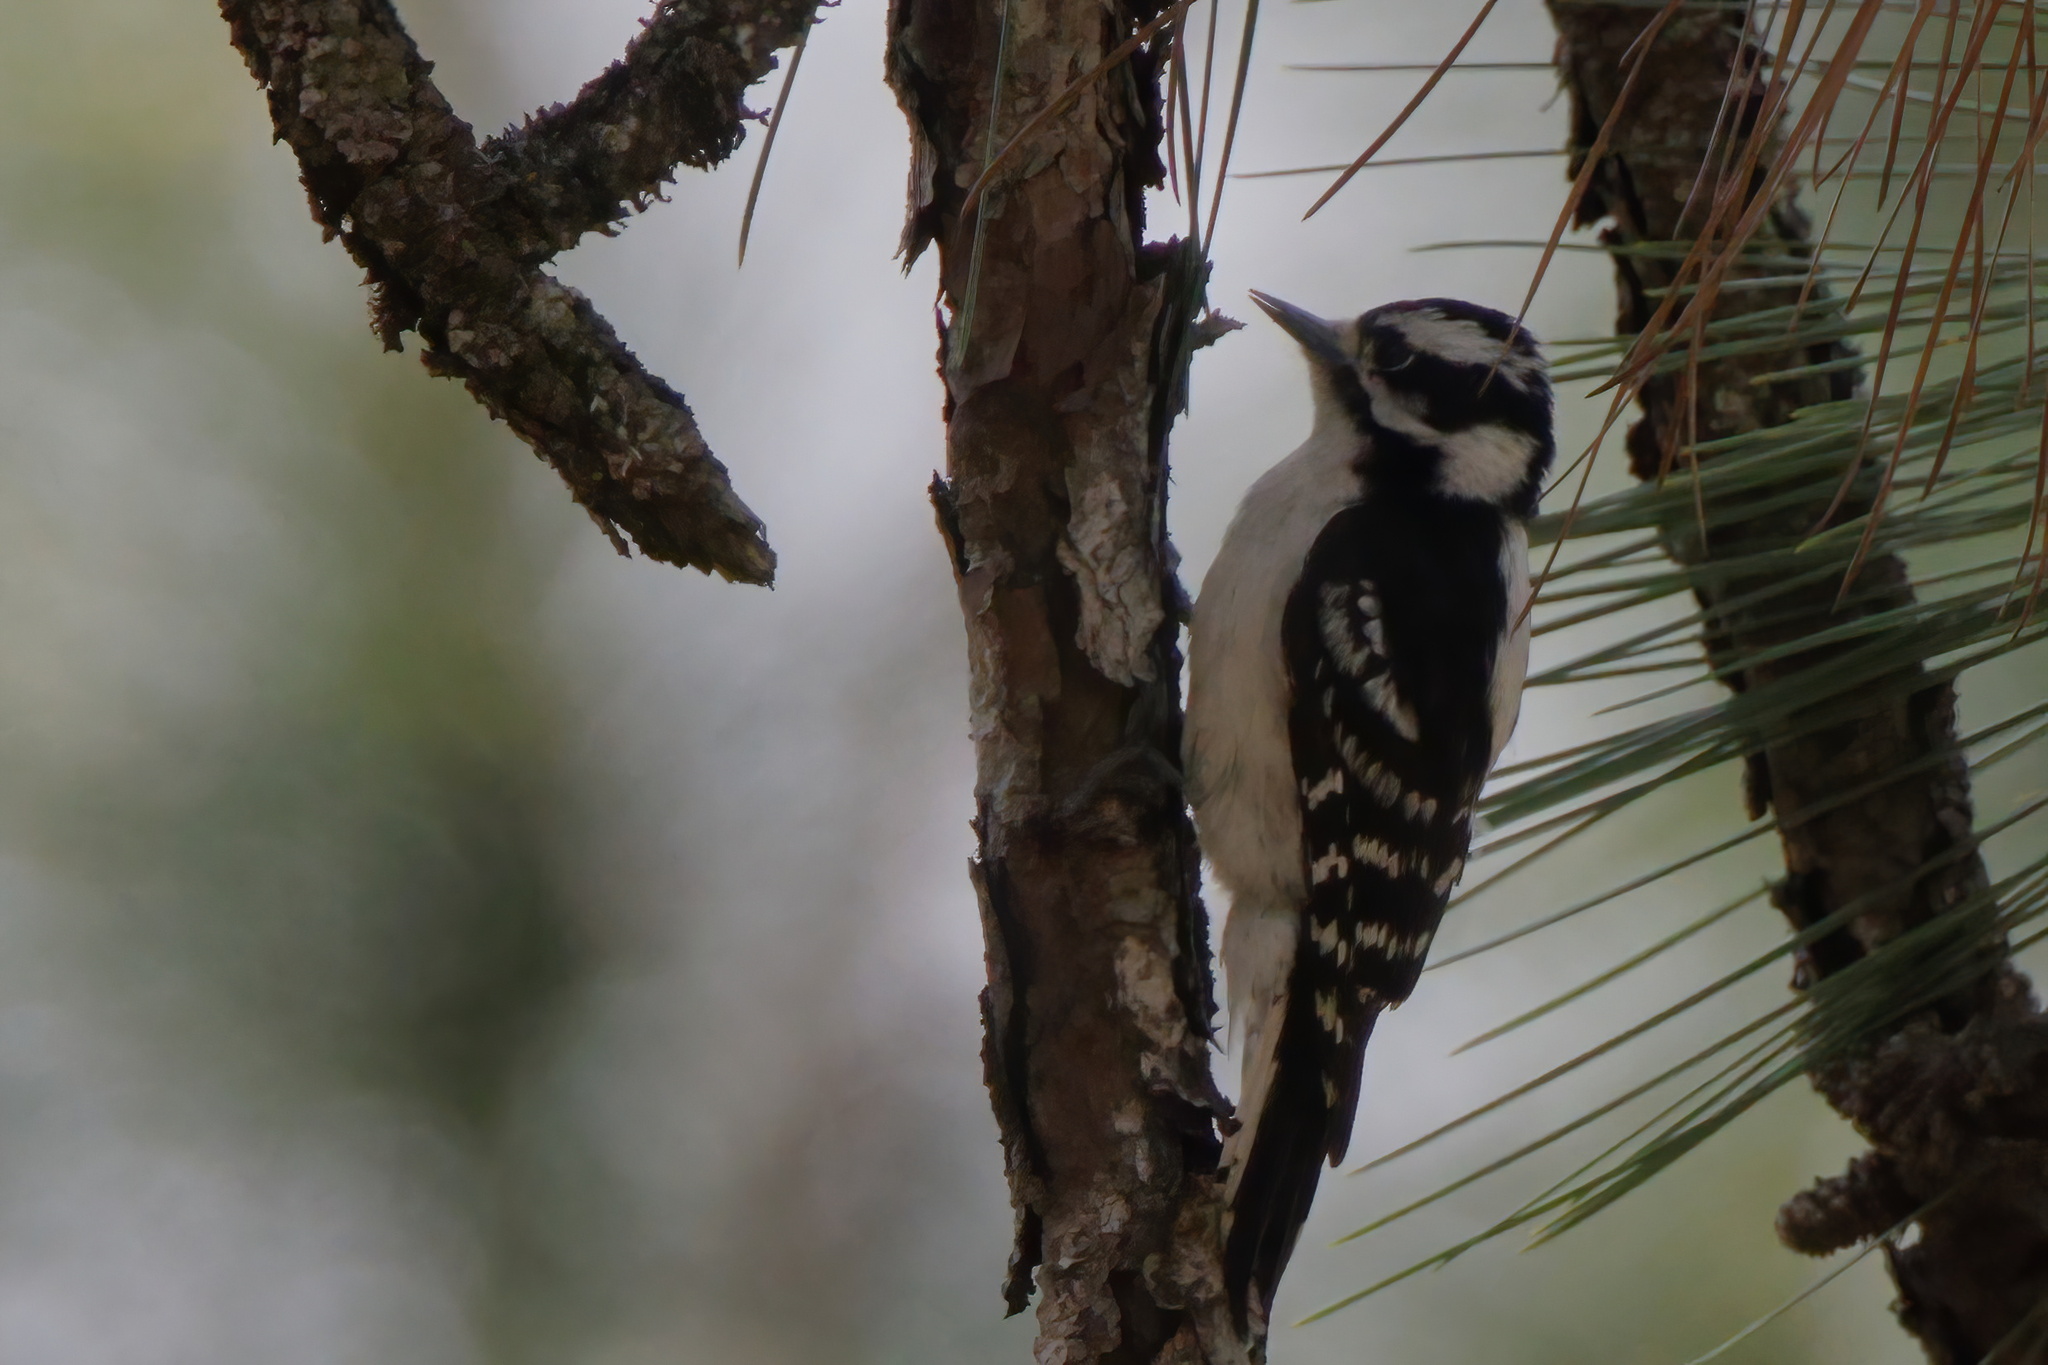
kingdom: Animalia
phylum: Chordata
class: Aves
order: Piciformes
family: Picidae
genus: Dryobates
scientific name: Dryobates pubescens
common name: Downy woodpecker
